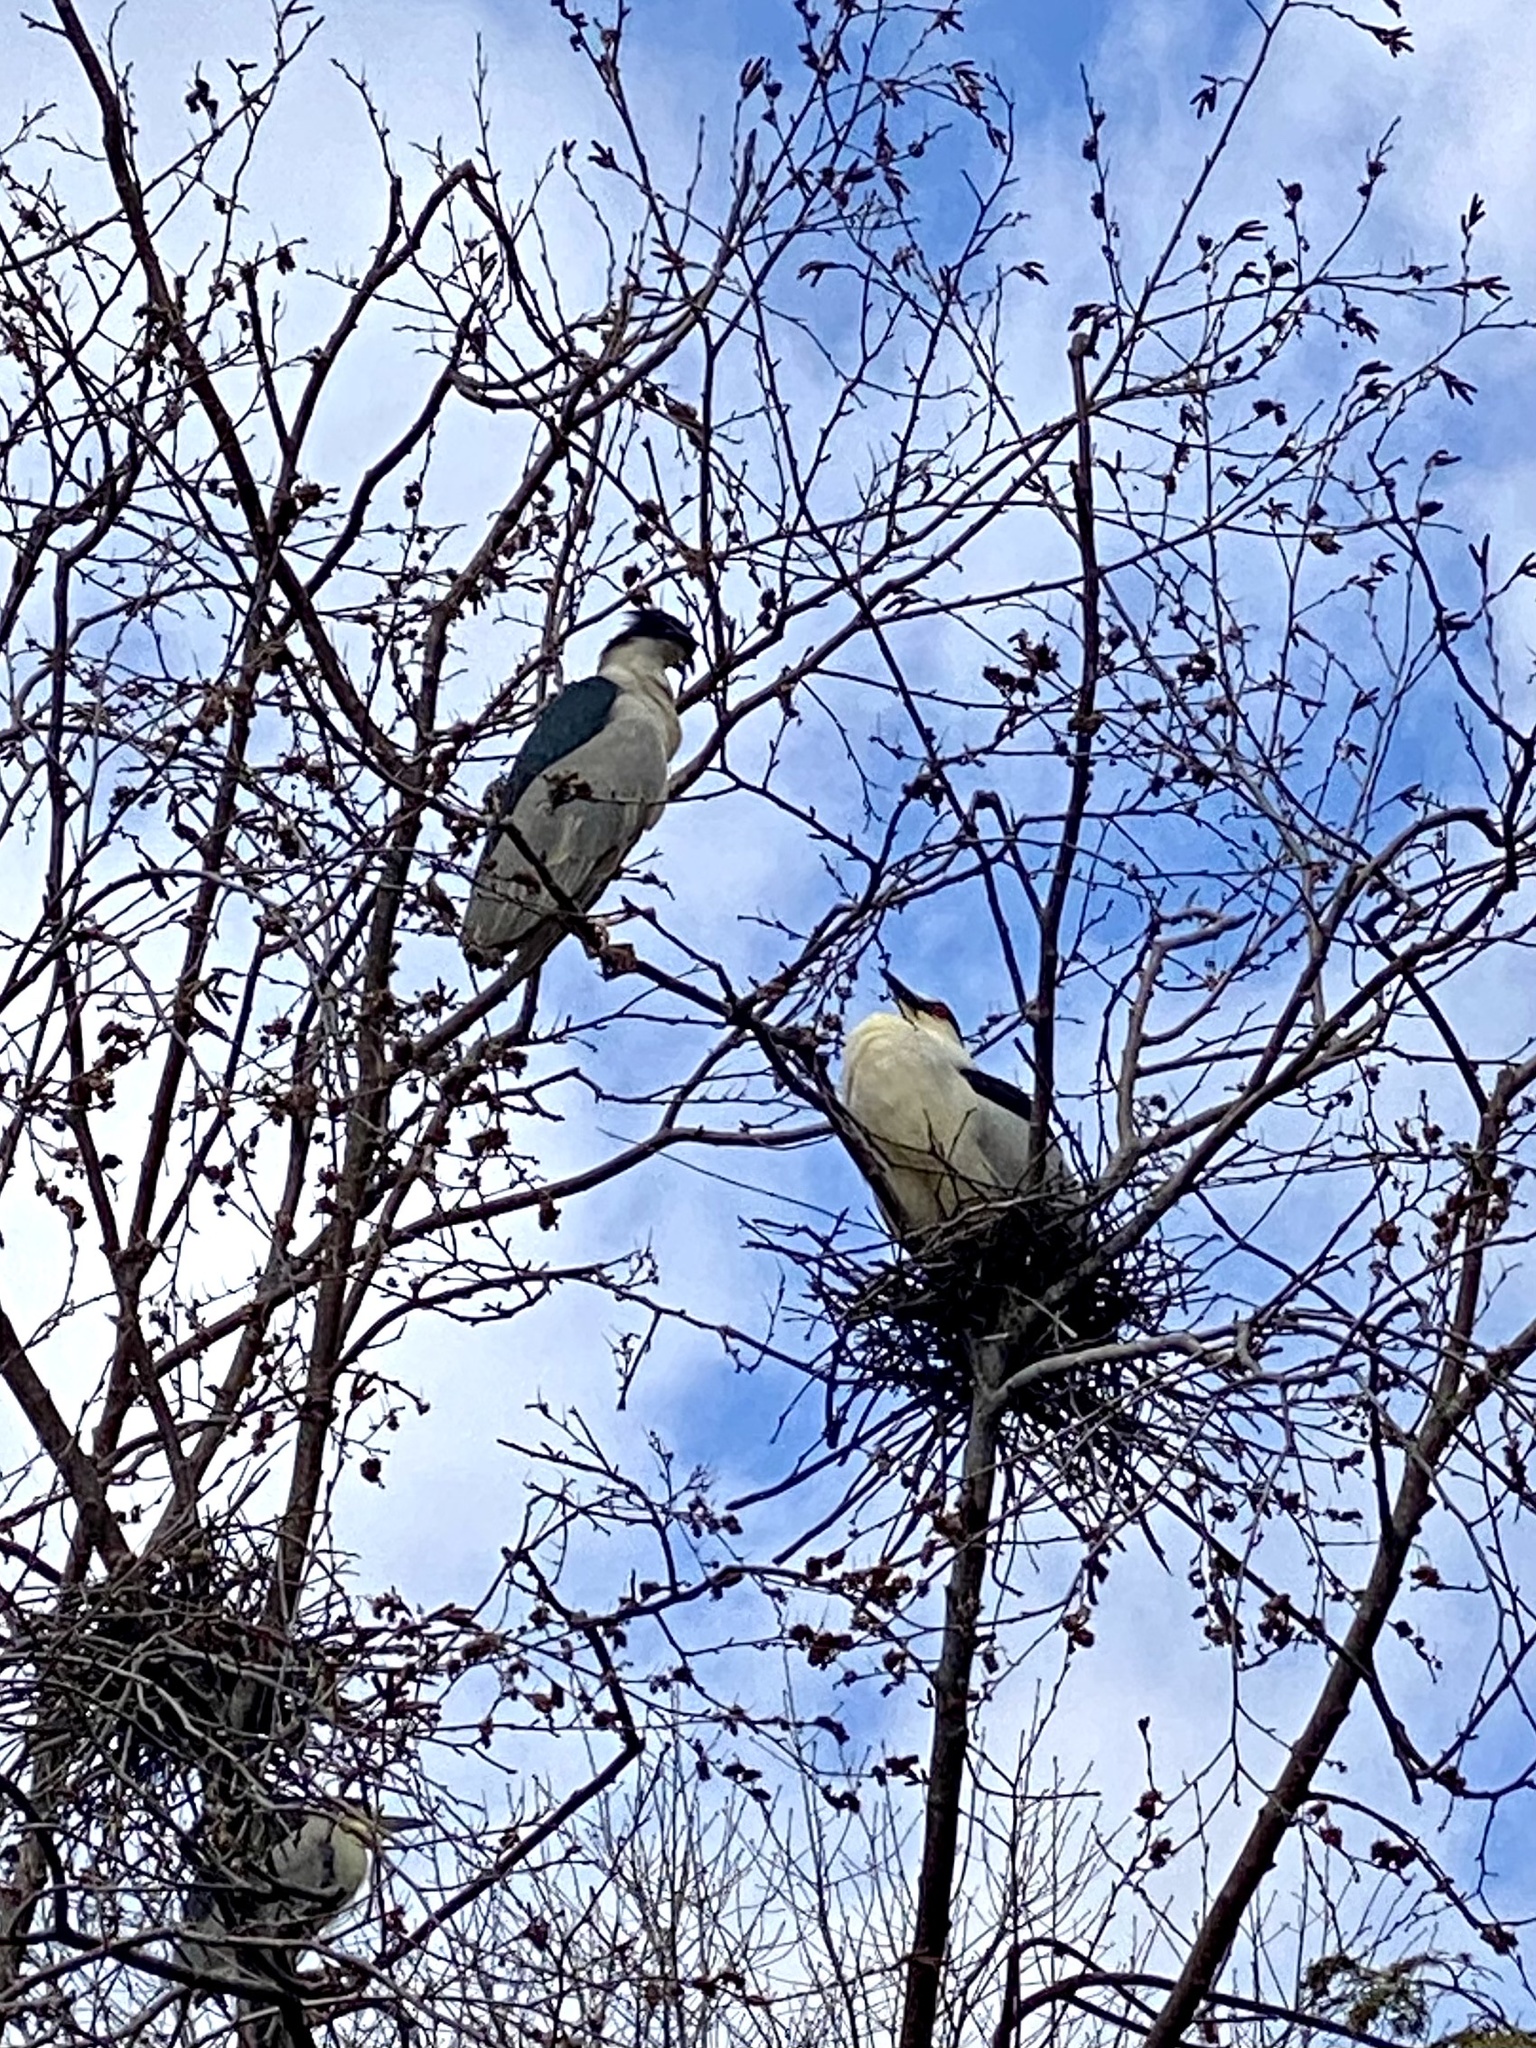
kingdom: Animalia
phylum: Chordata
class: Aves
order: Pelecaniformes
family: Ardeidae
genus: Nycticorax
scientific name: Nycticorax nycticorax
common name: Black-crowned night heron
